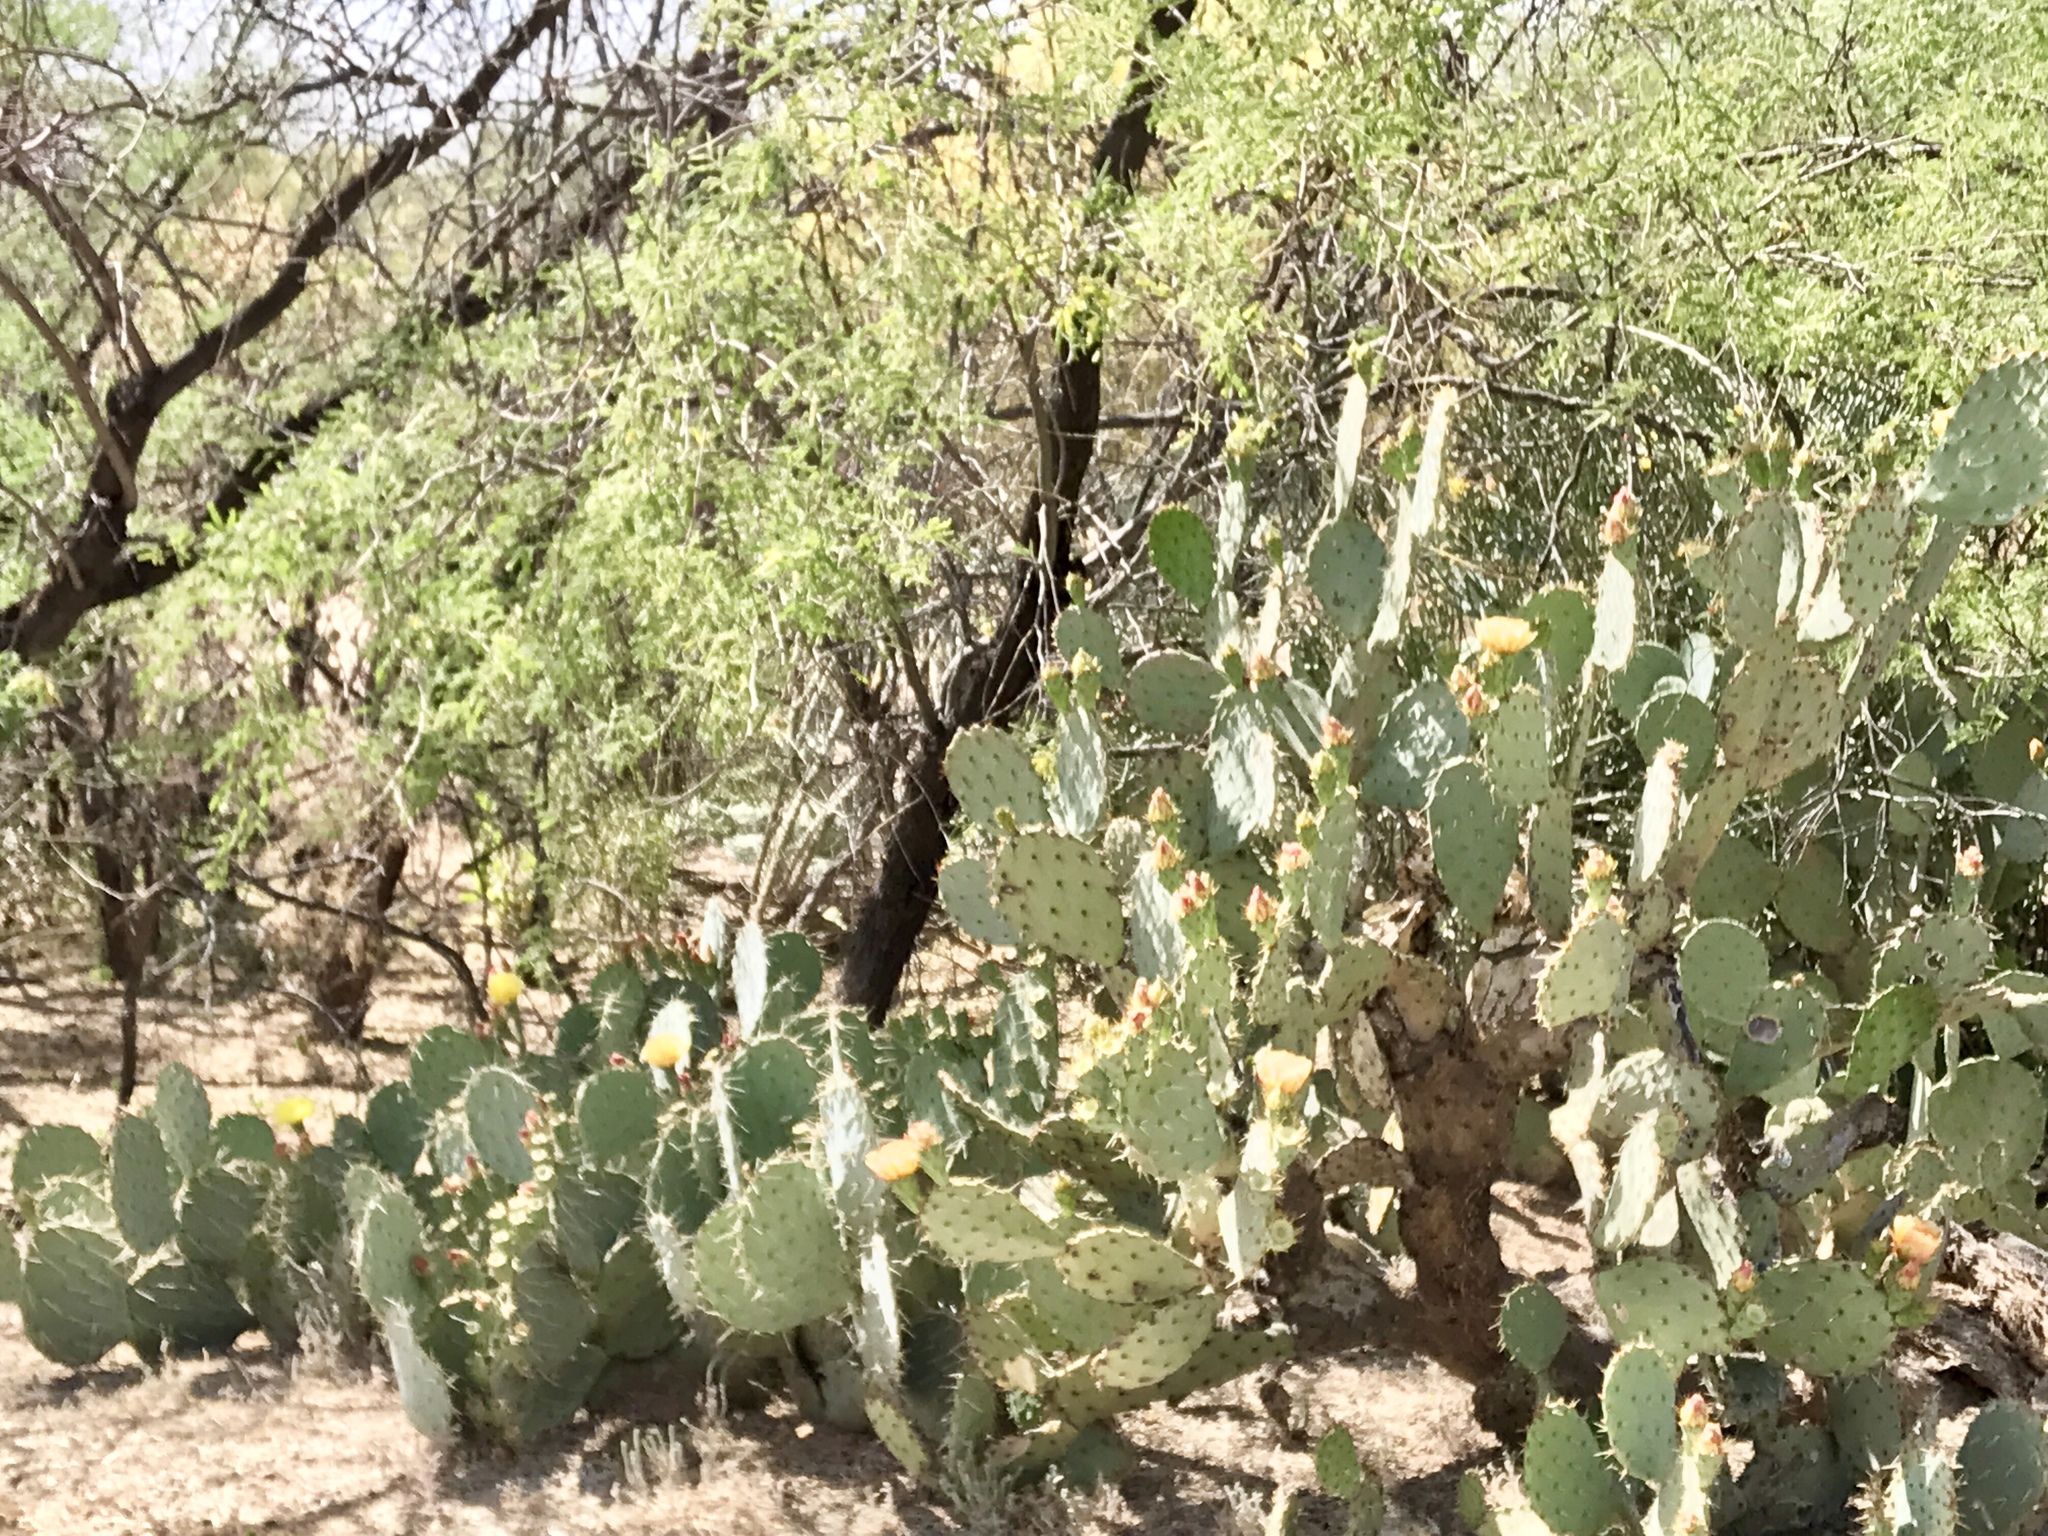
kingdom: Plantae
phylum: Tracheophyta
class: Magnoliopsida
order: Caryophyllales
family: Cactaceae
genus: Opuntia
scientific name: Opuntia engelmannii
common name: Cactus-apple
